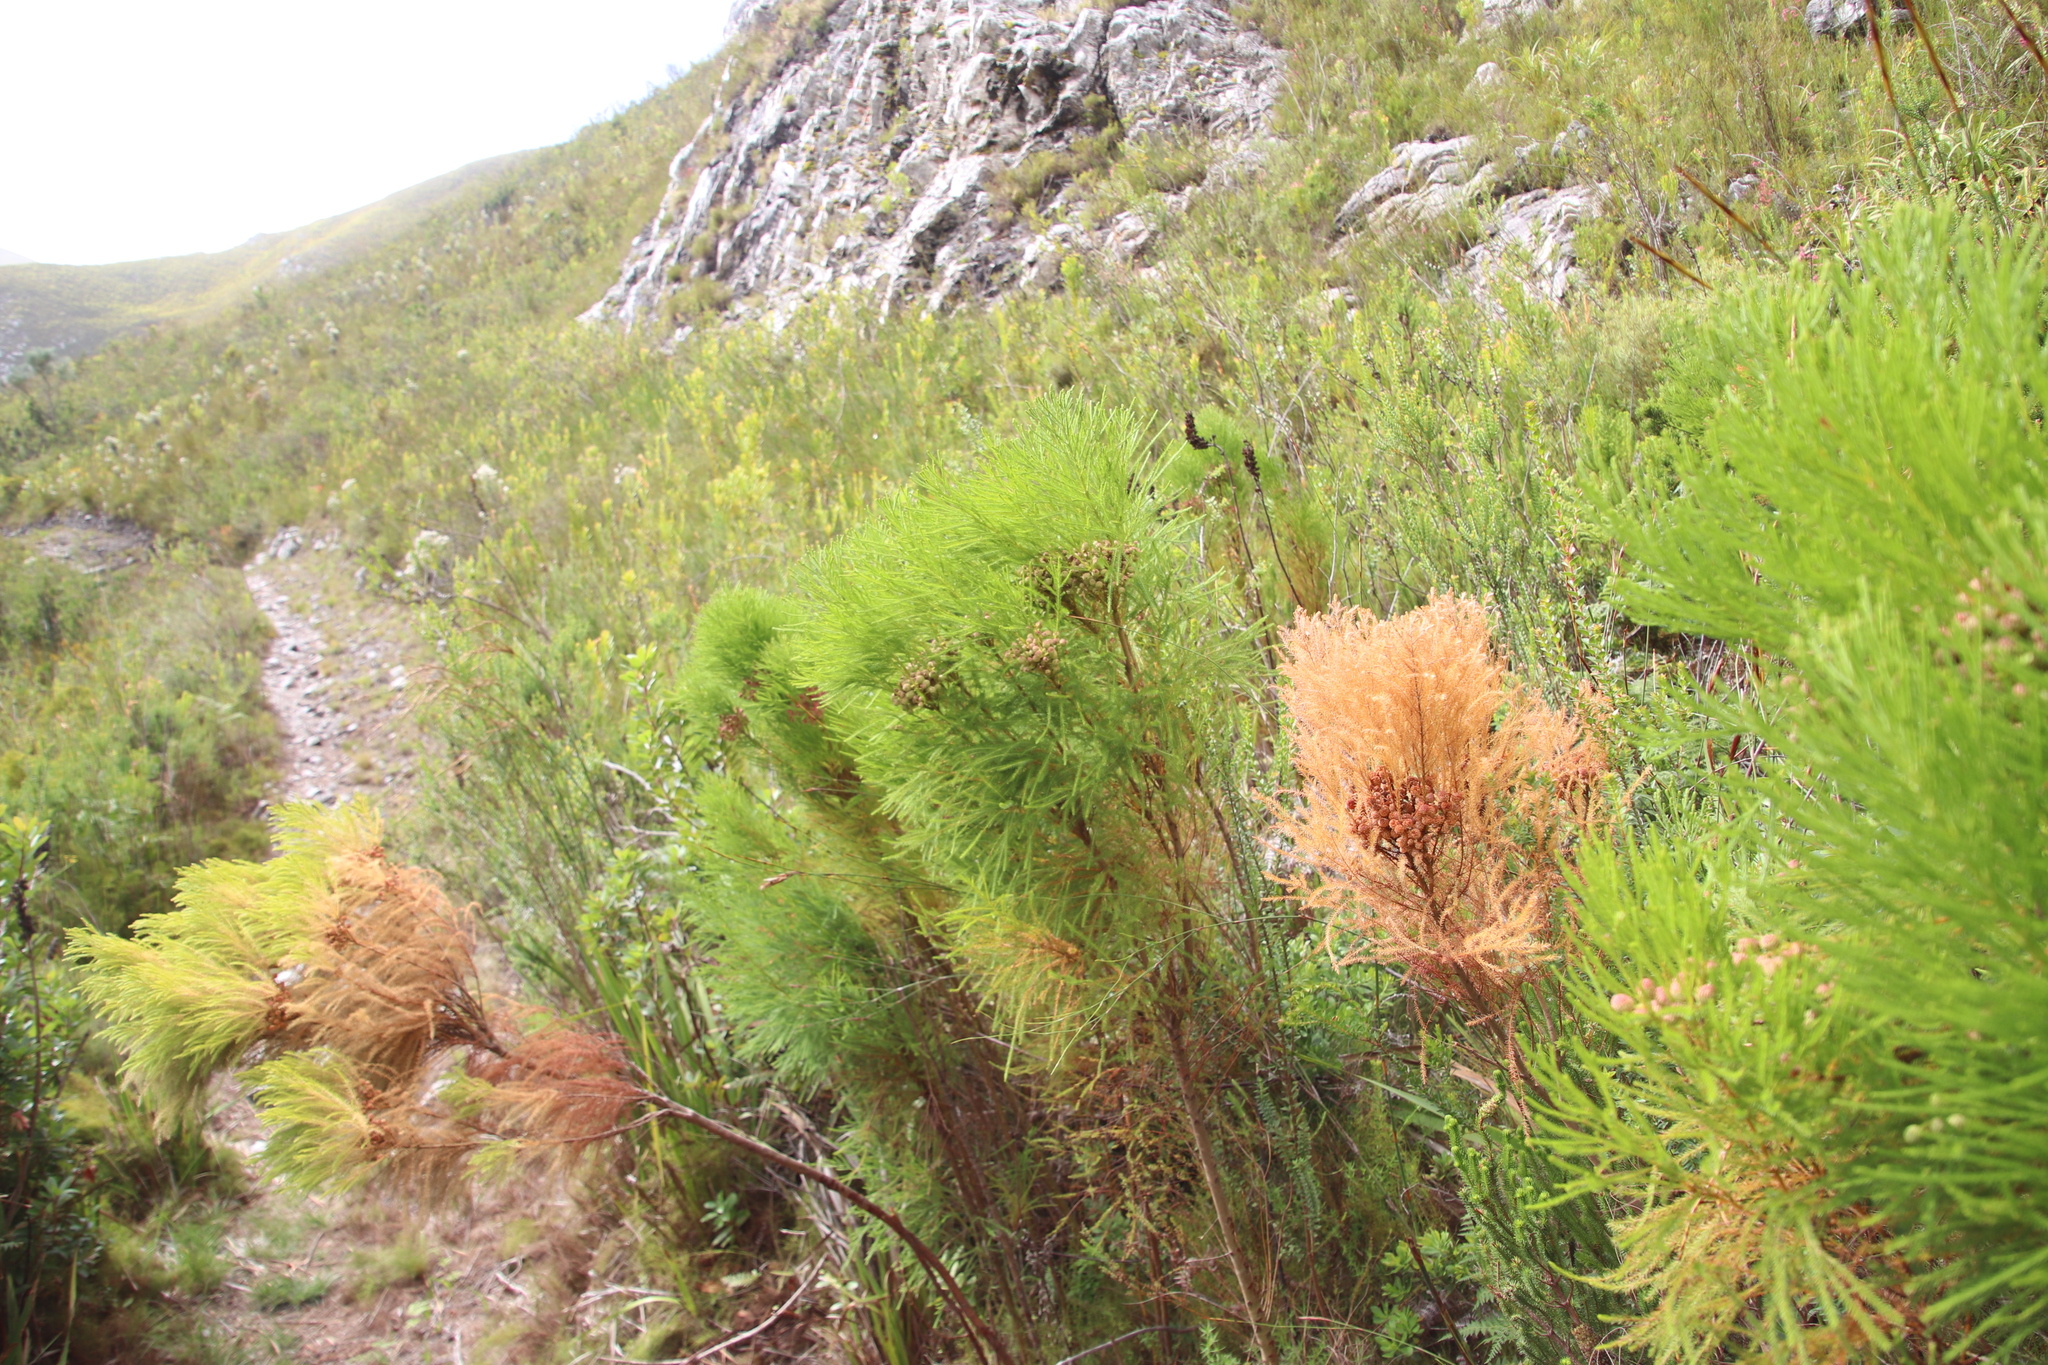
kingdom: Plantae
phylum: Tracheophyta
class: Magnoliopsida
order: Bruniales
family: Bruniaceae
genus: Berzelia
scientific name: Berzelia lanuginosa
